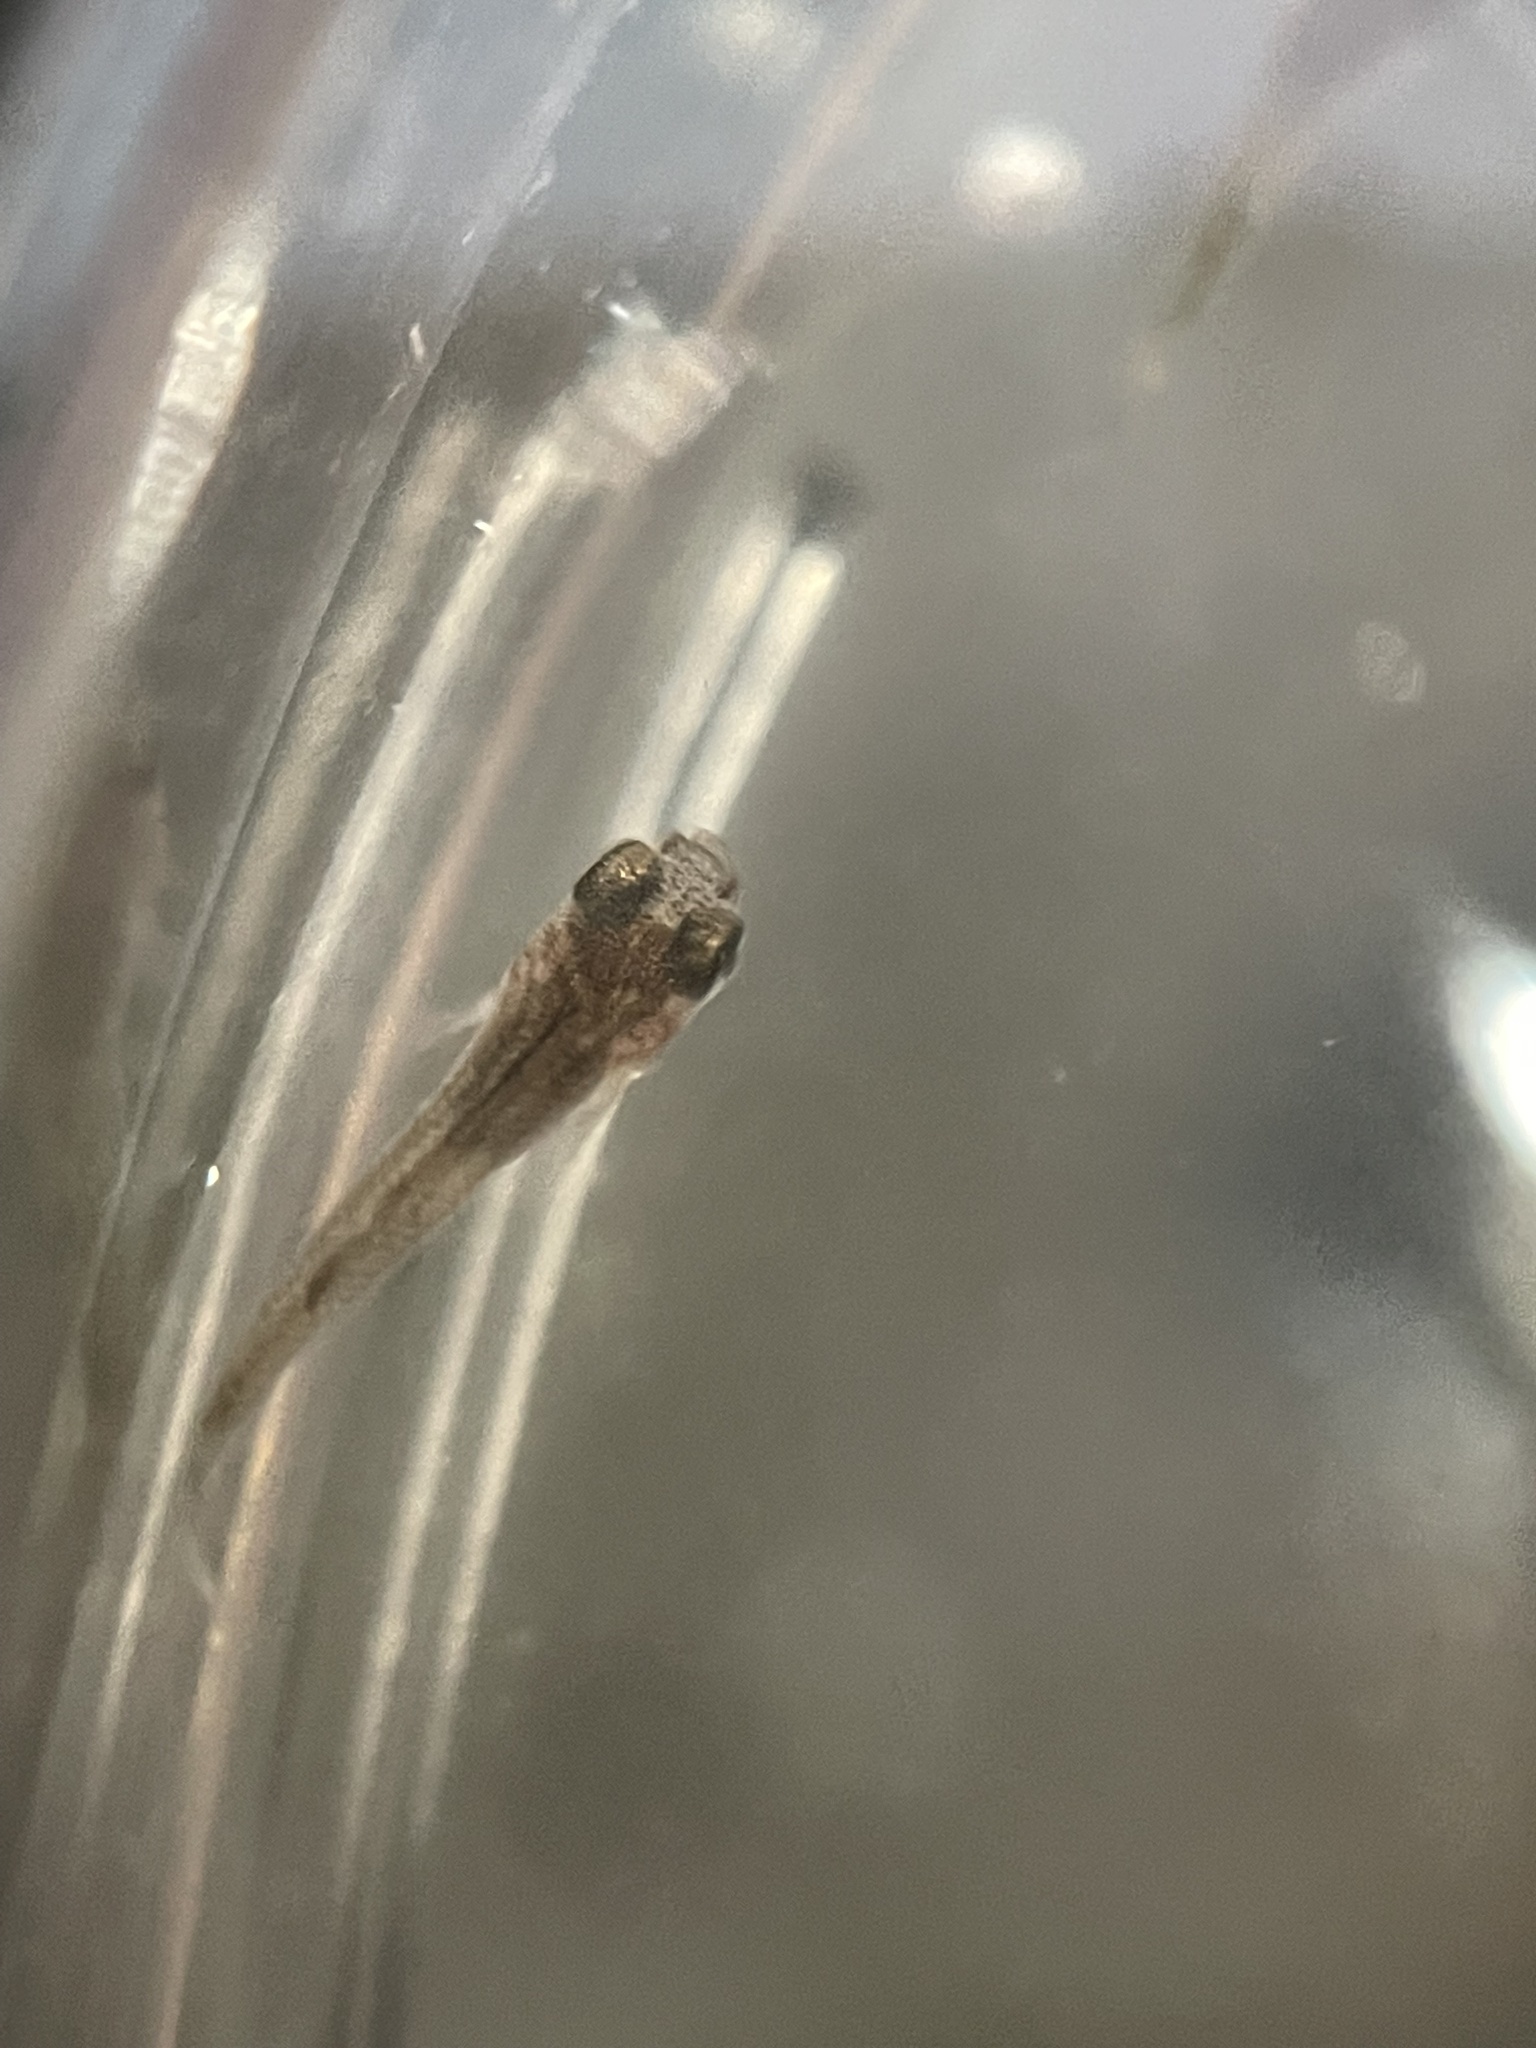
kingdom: Animalia
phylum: Chordata
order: Cyprinodontiformes
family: Poeciliidae
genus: Gambusia
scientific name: Gambusia affinis
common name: Mosquitofish
